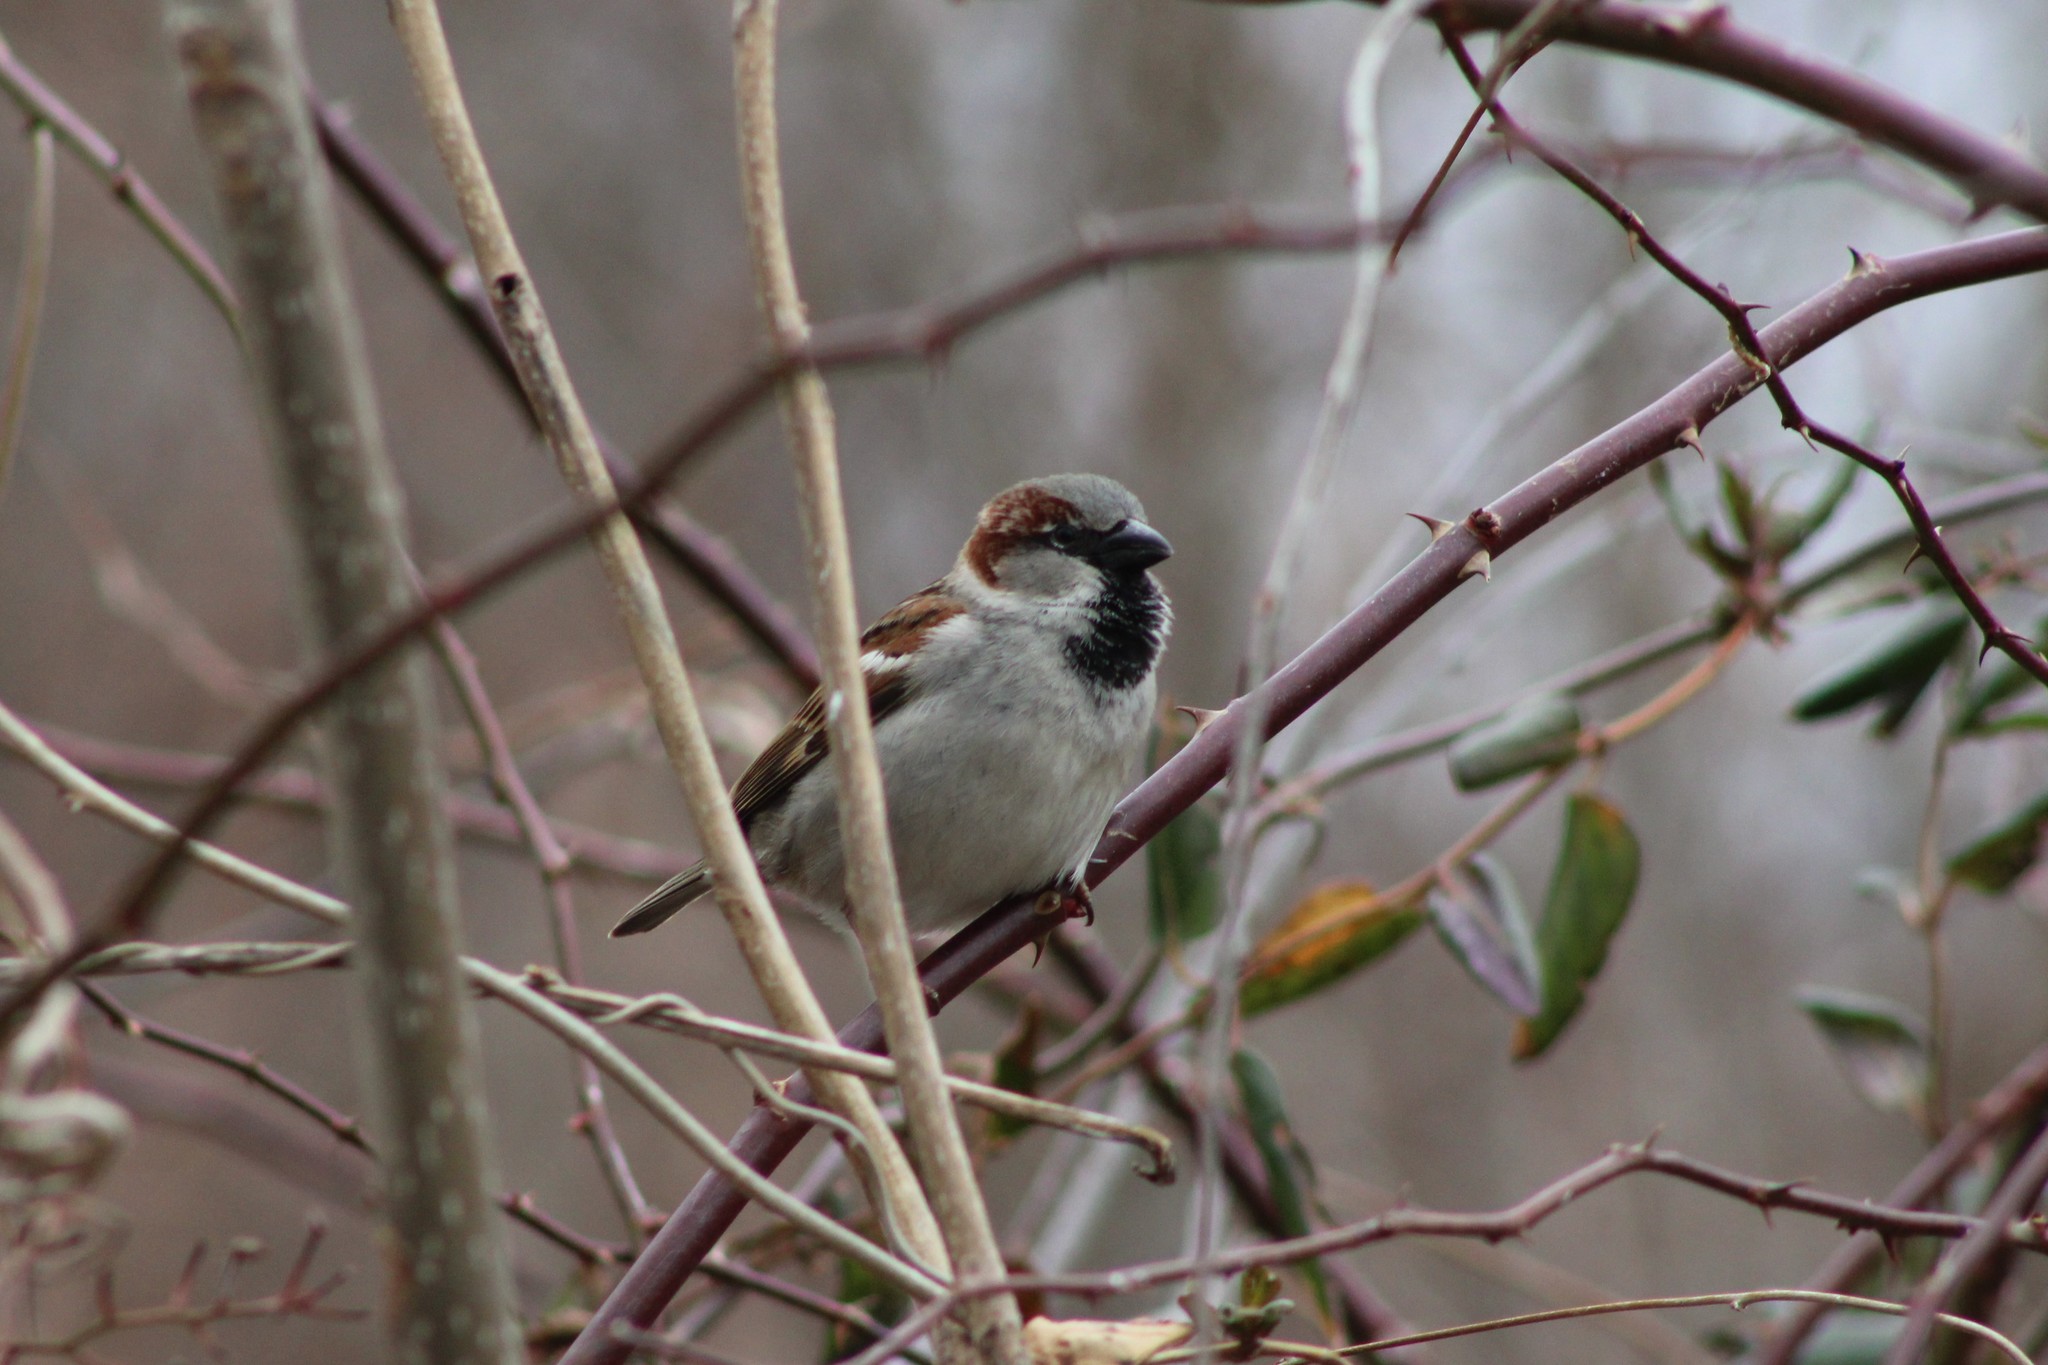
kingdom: Animalia
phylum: Chordata
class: Aves
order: Passeriformes
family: Passeridae
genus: Passer
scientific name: Passer domesticus
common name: House sparrow
